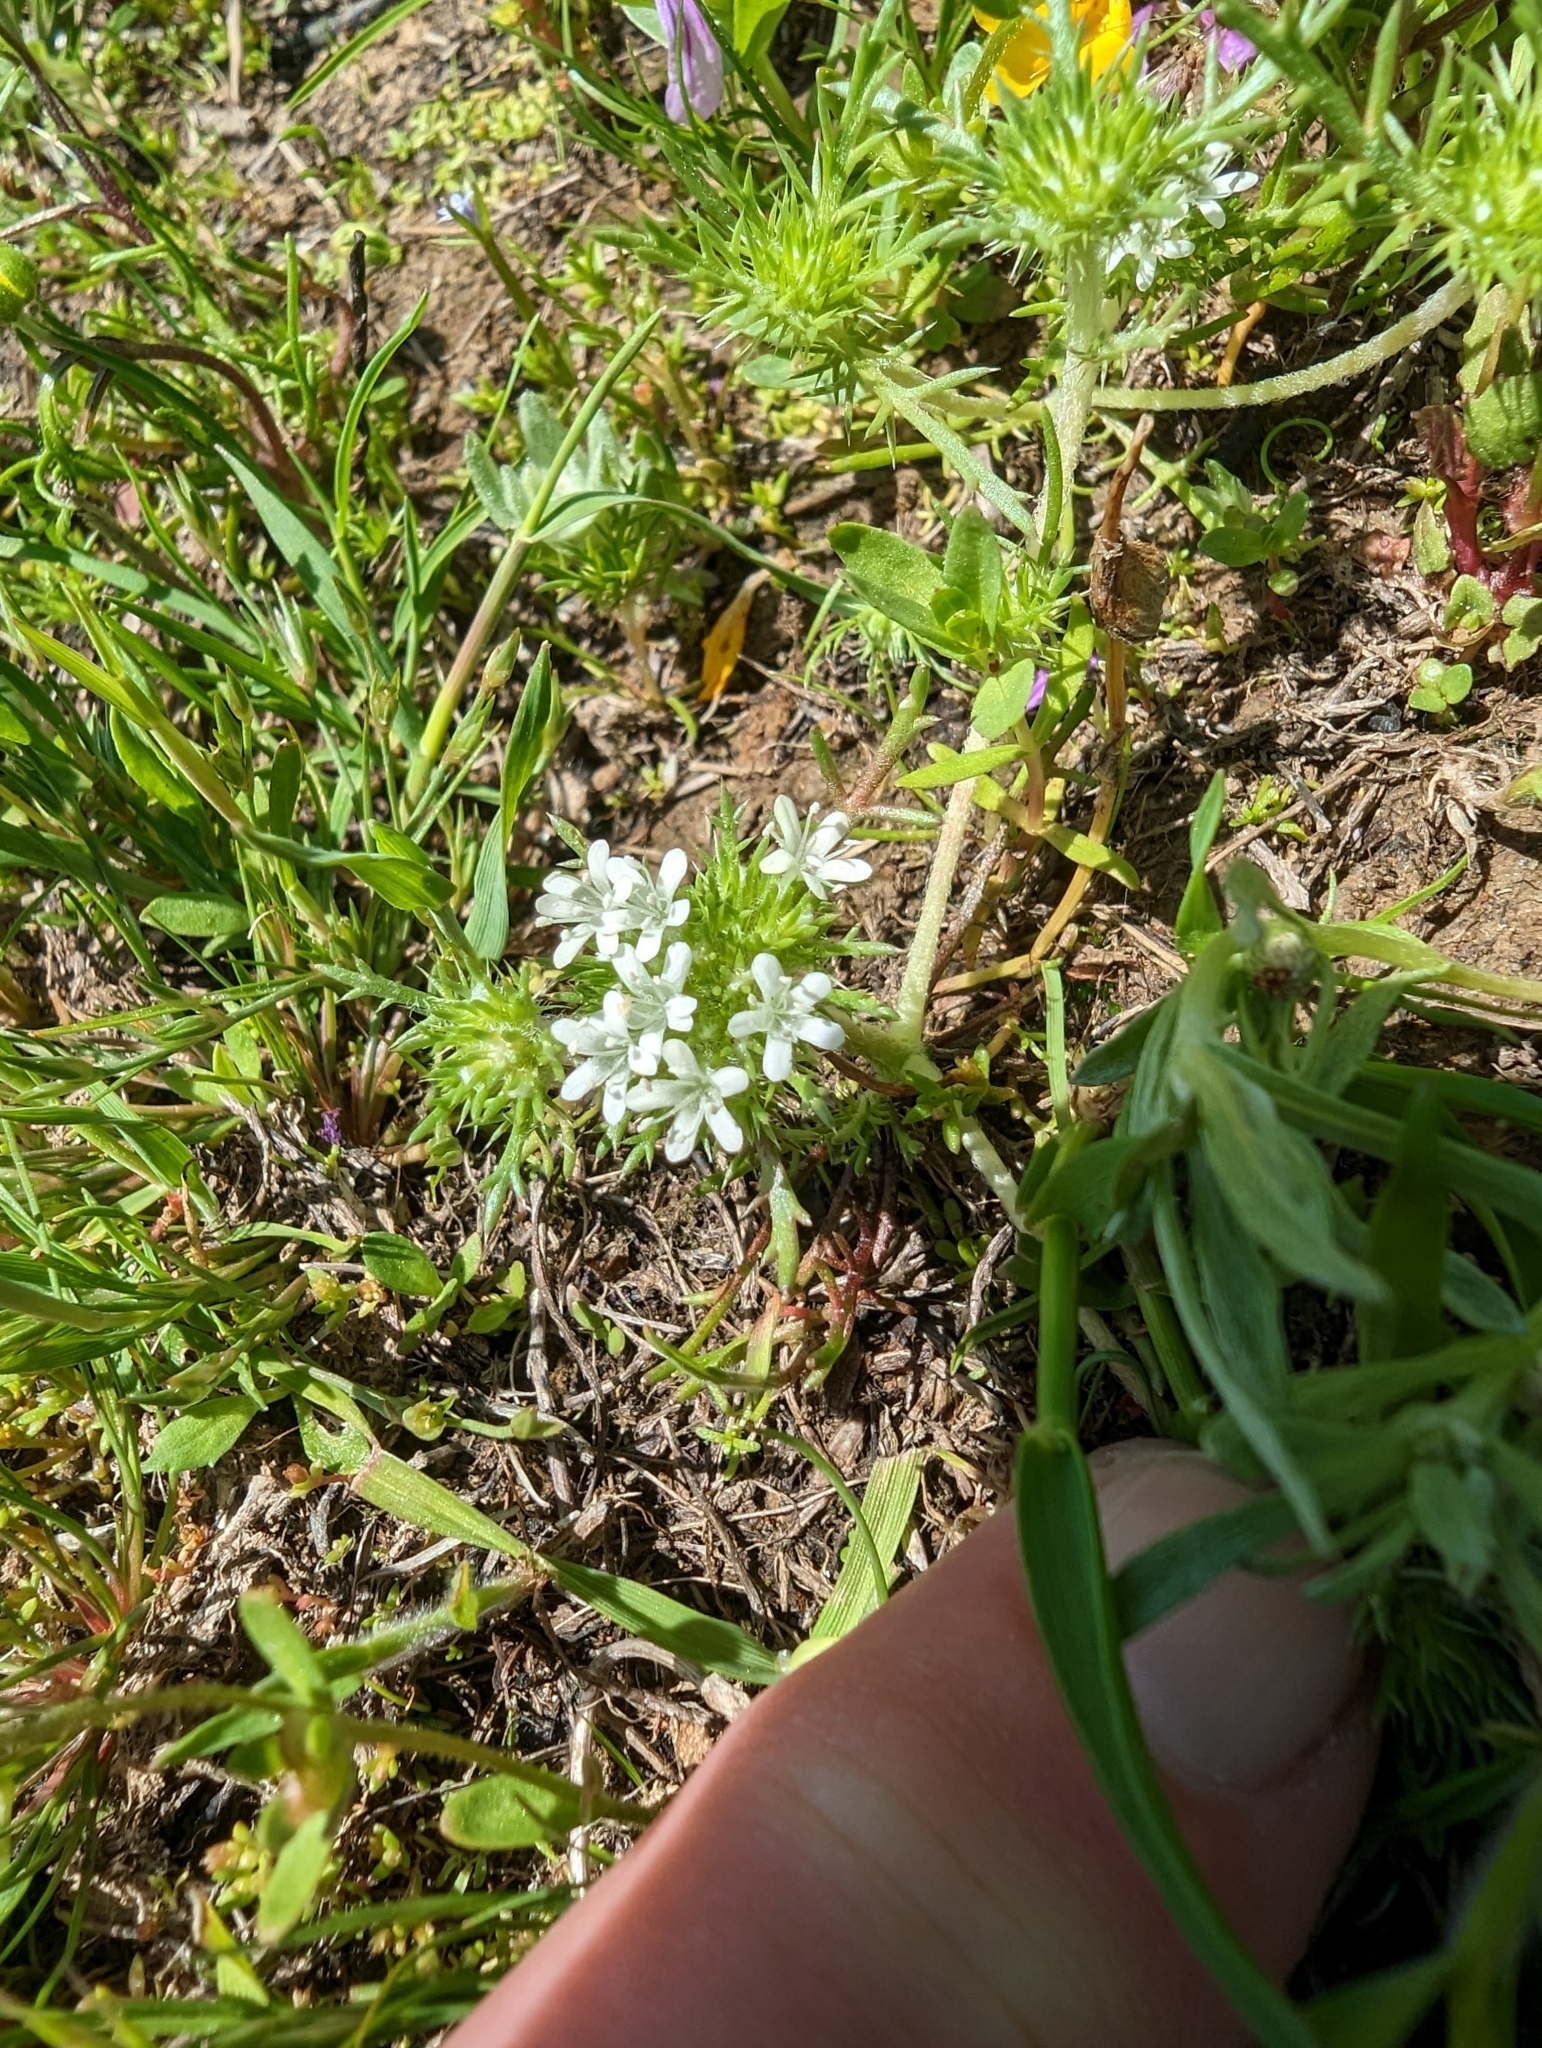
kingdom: Plantae
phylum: Tracheophyta
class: Magnoliopsida
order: Ericales
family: Polemoniaceae
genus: Navarretia
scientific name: Navarretia leucocephala
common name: White-flowered navarretia
